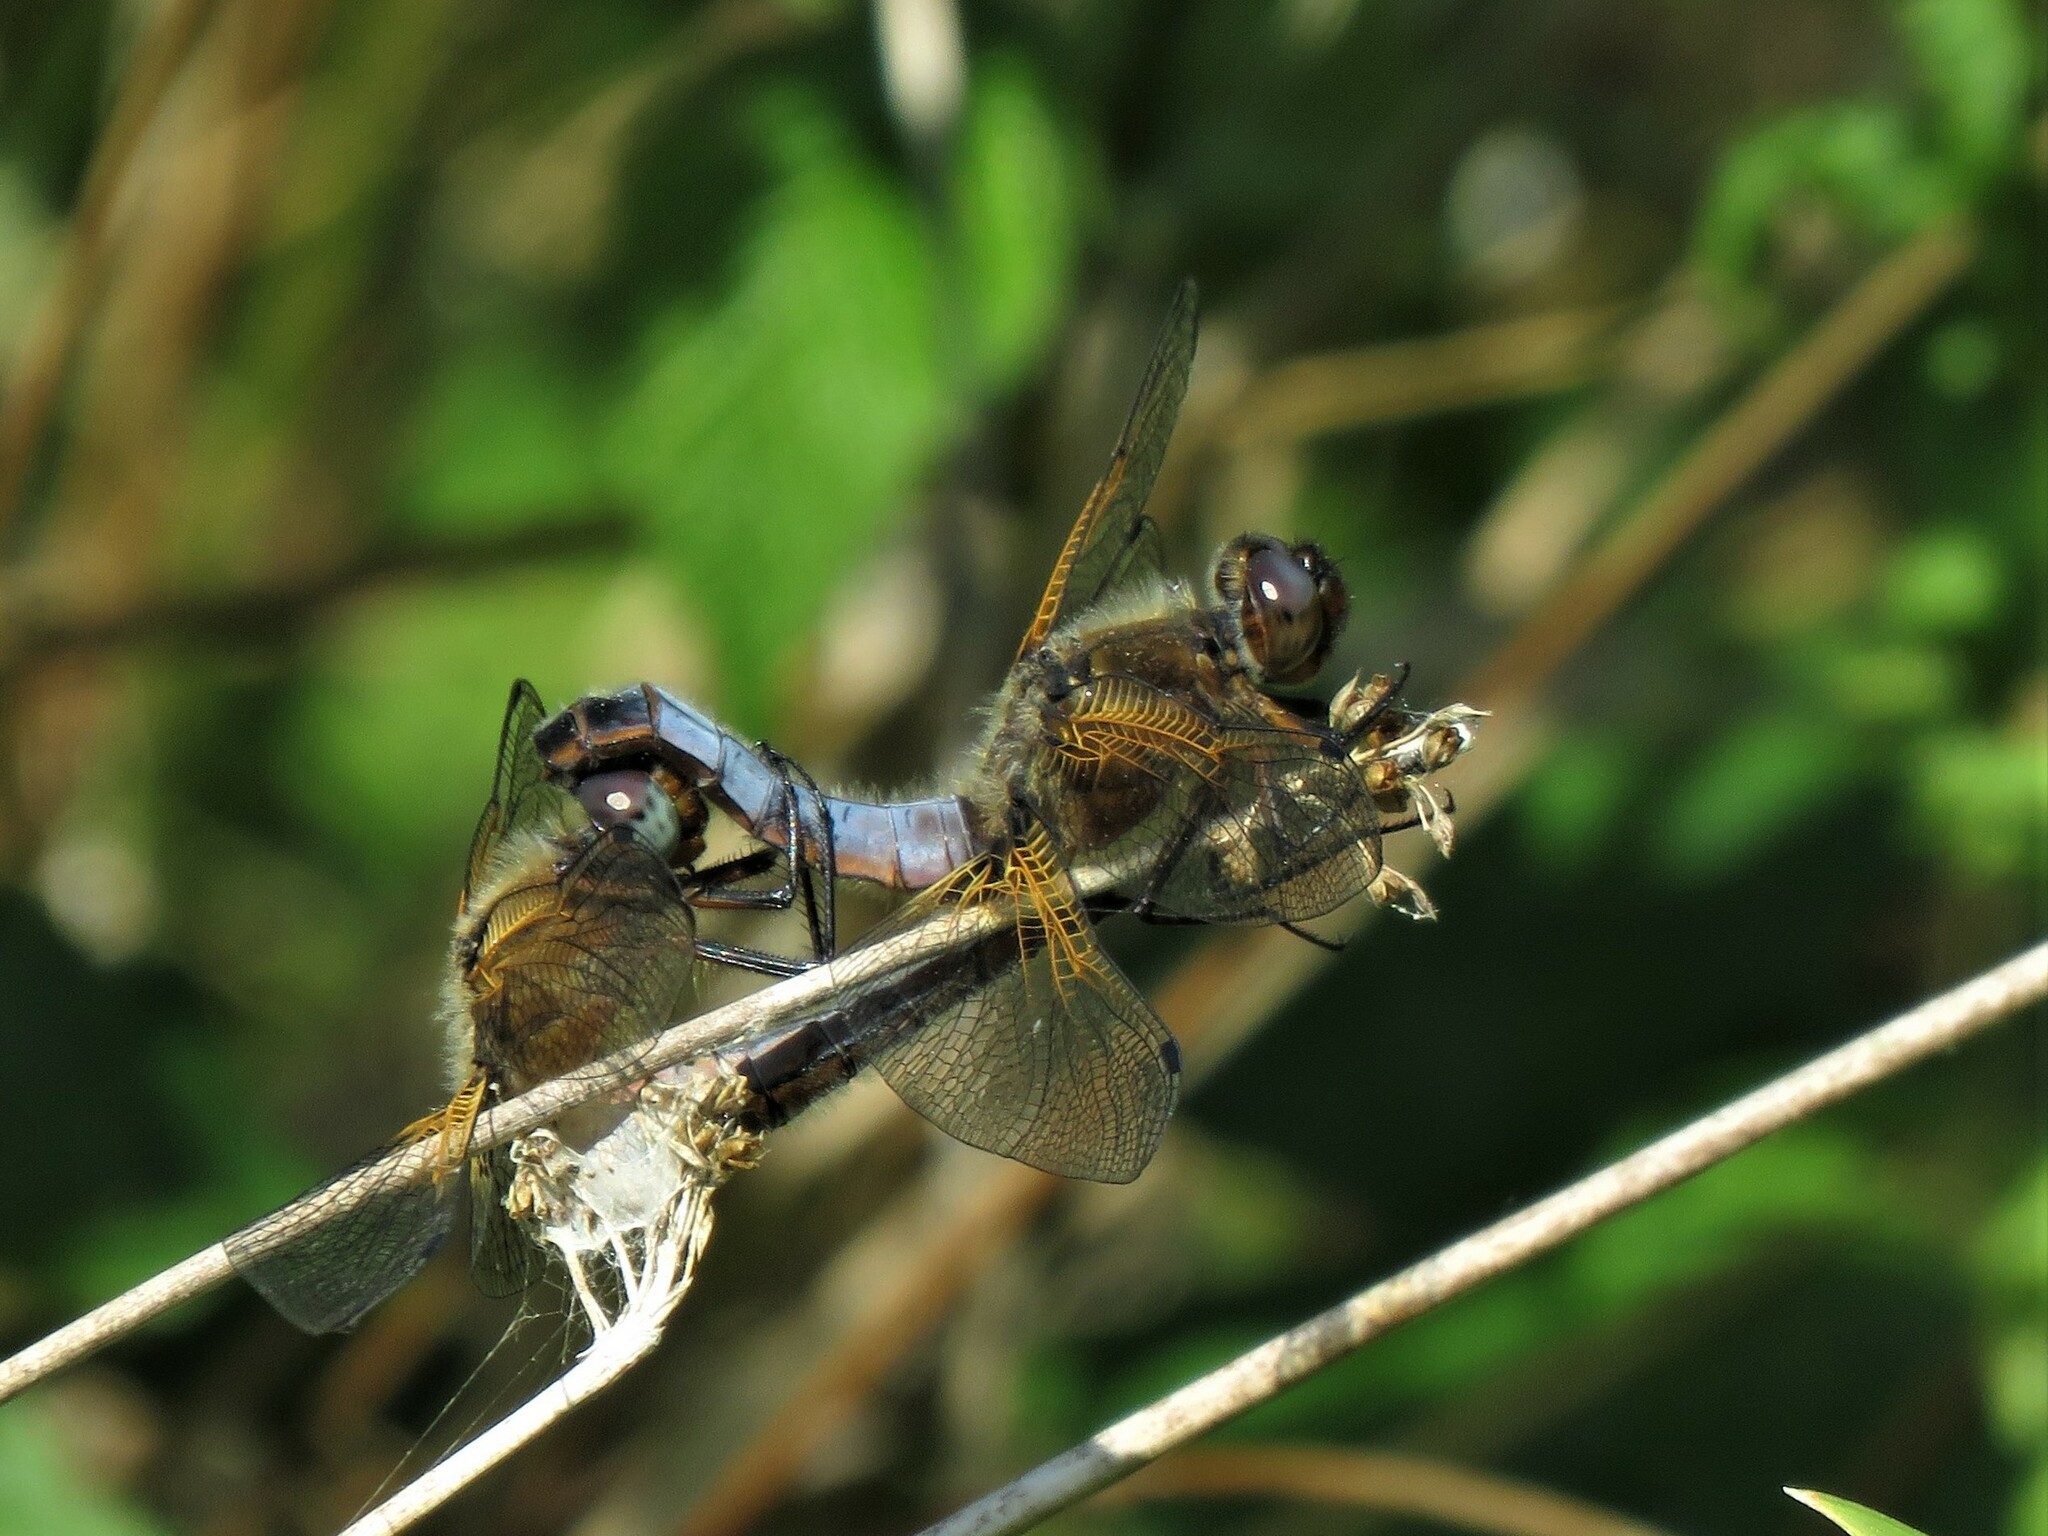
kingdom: Animalia
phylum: Arthropoda
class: Insecta
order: Odonata
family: Libellulidae
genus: Libellula
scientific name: Libellula fulva
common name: Blue chaser
